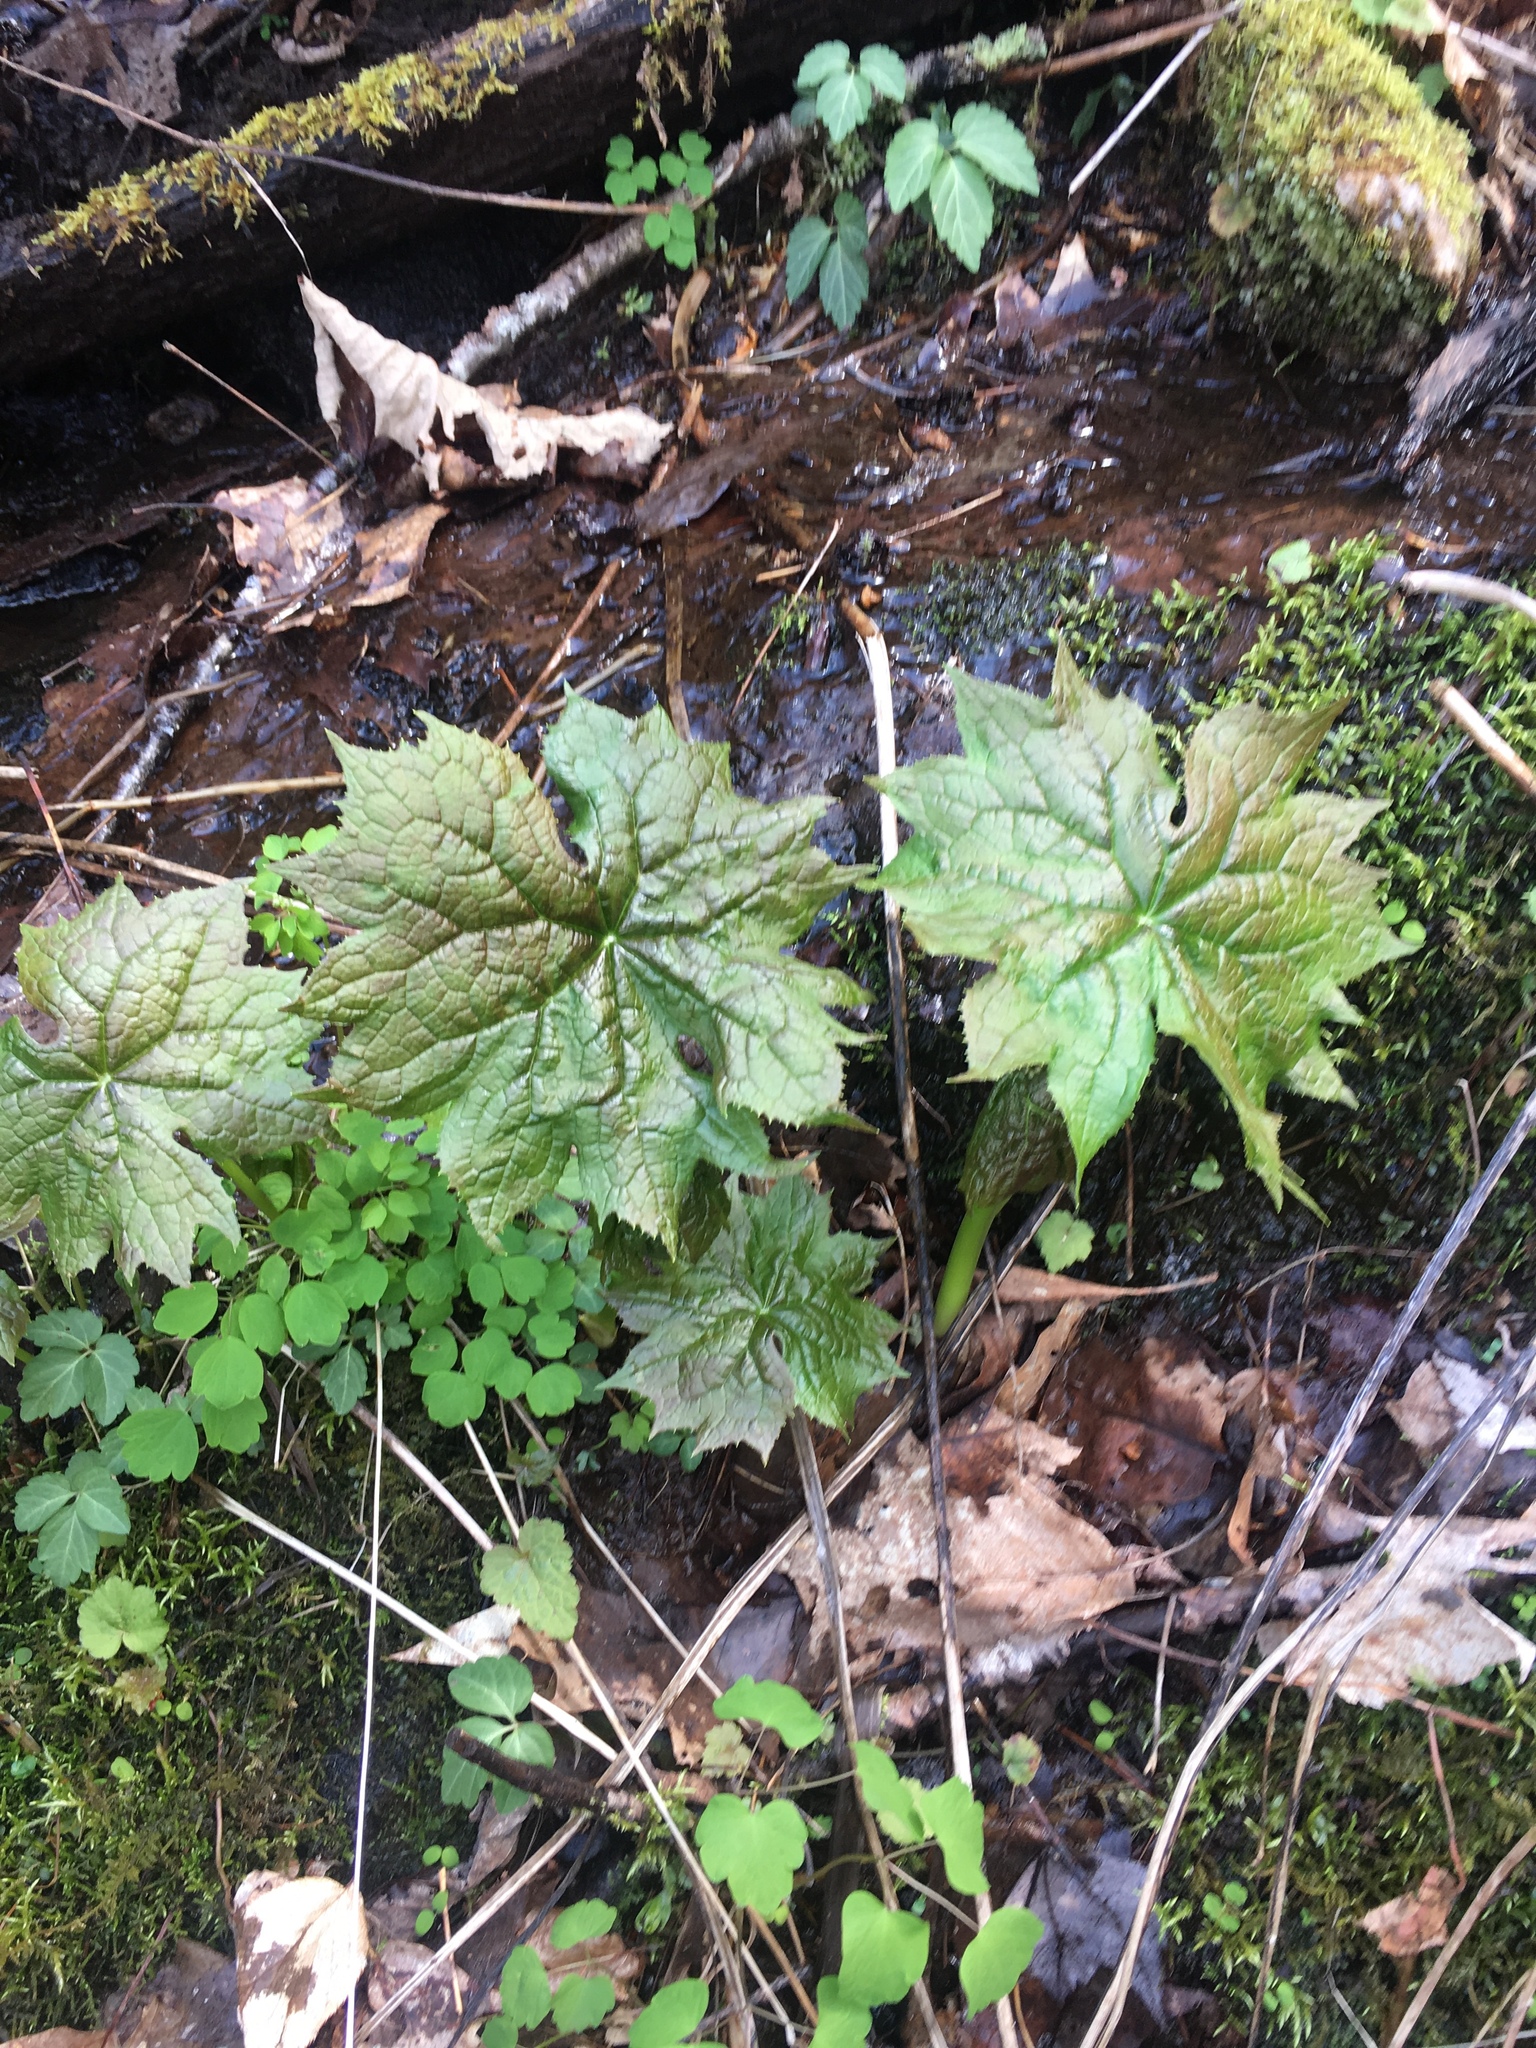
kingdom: Plantae
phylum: Tracheophyta
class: Magnoliopsida
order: Ranunculales
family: Berberidaceae
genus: Diphylleia
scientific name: Diphylleia cymosa
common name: Umbrella-leaf
